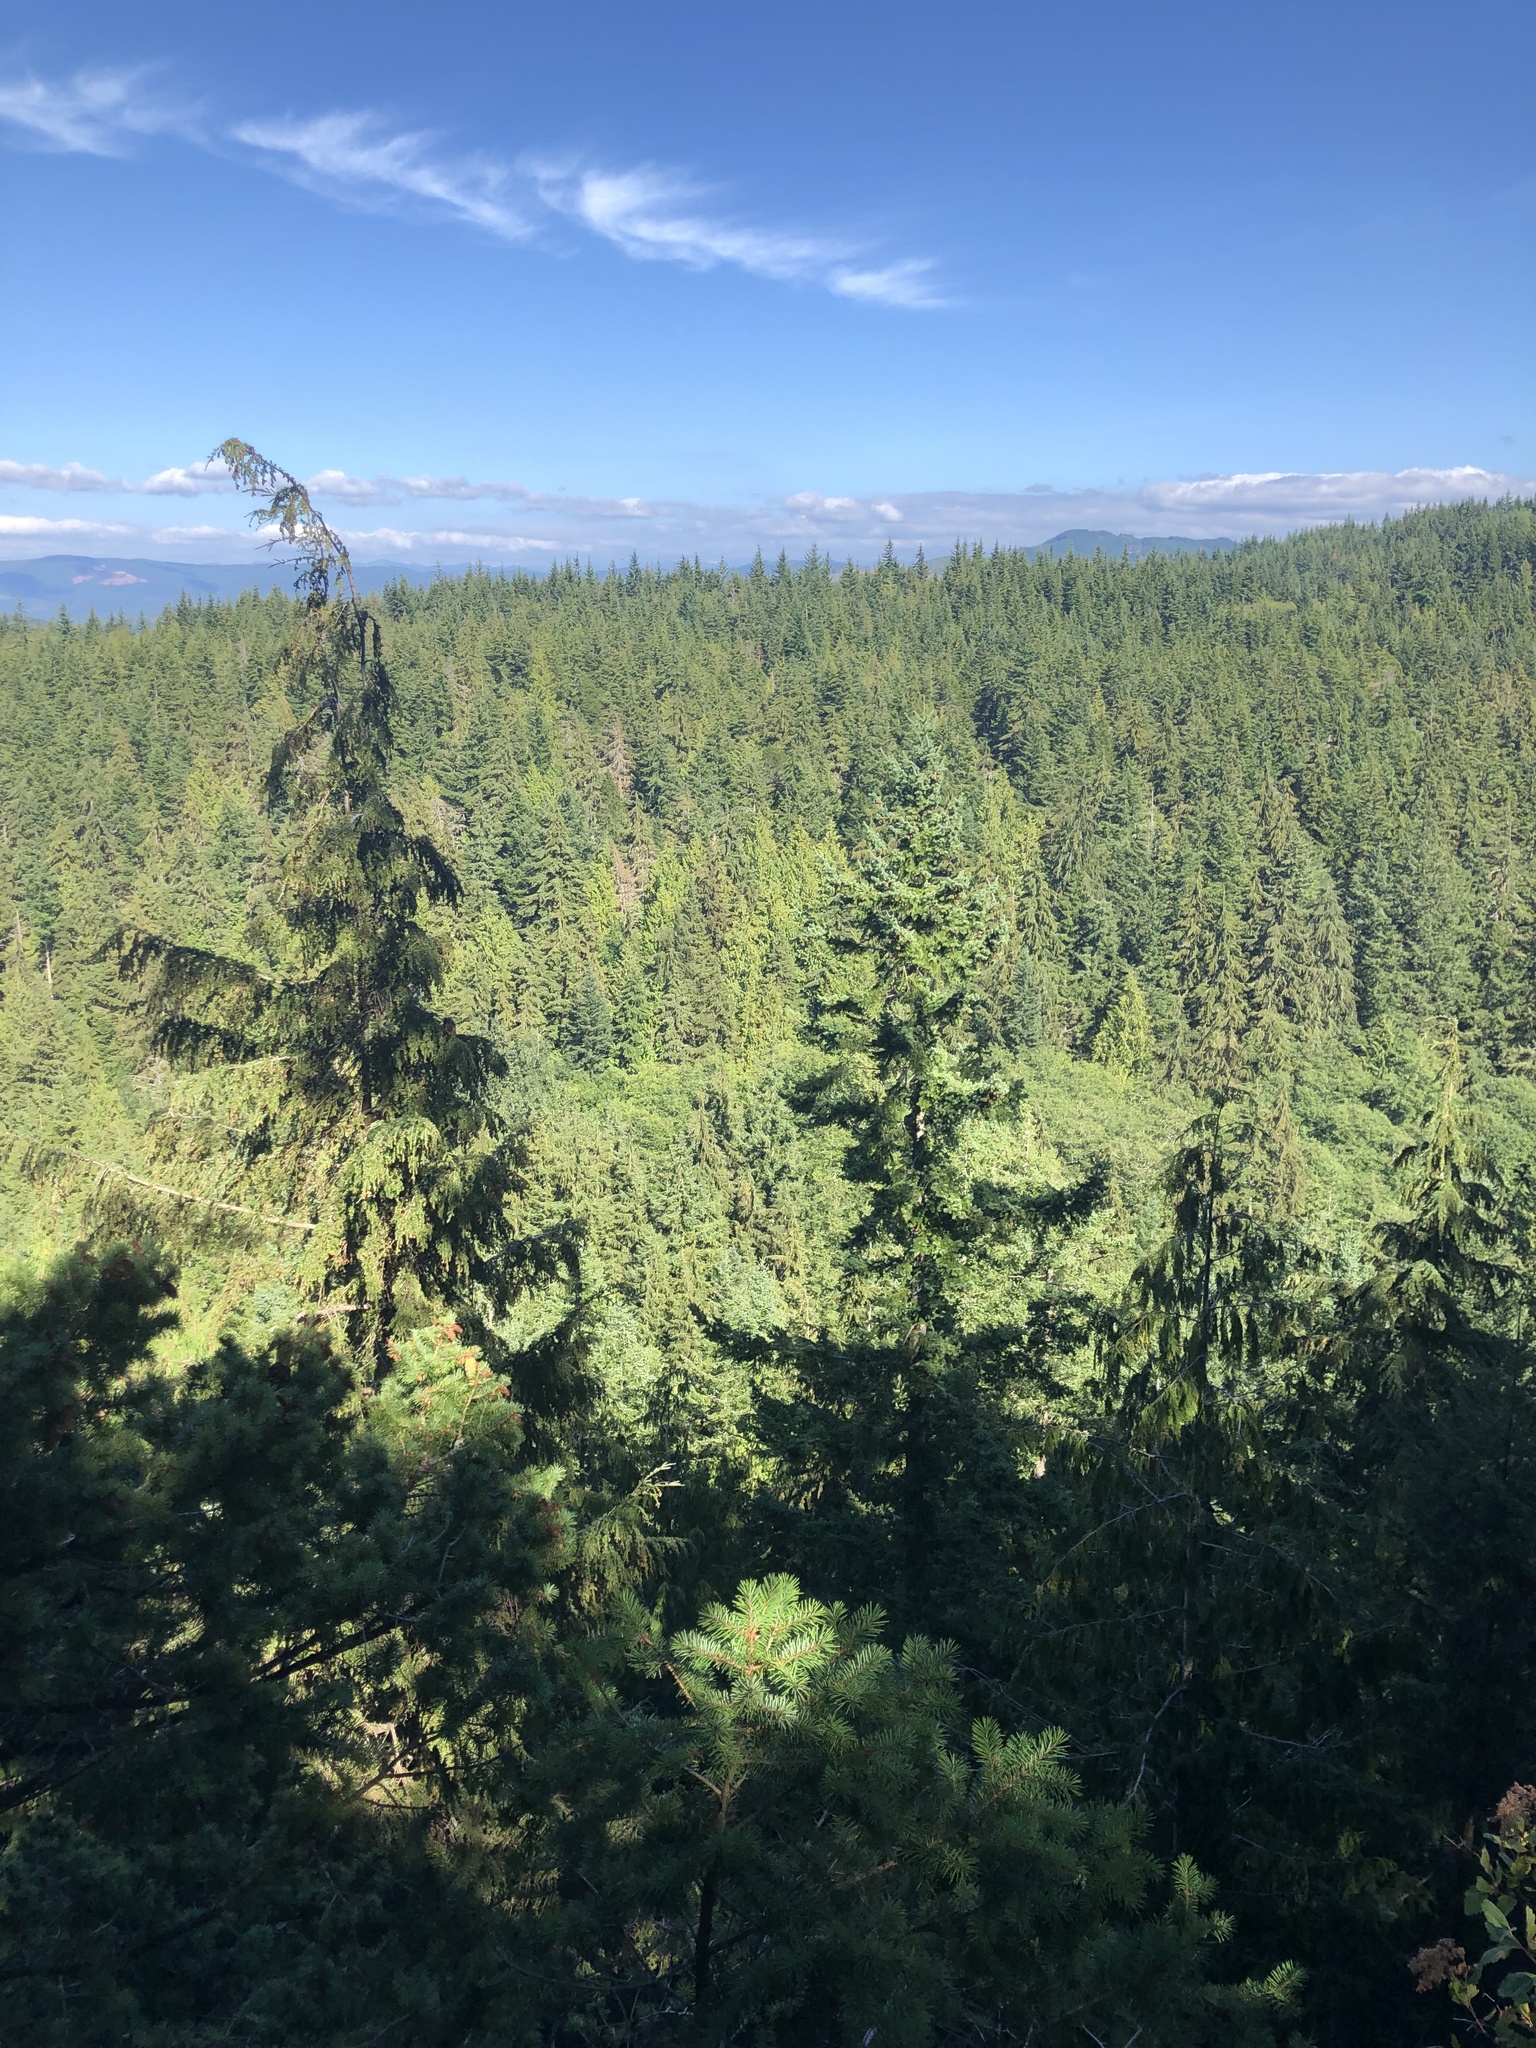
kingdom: Plantae
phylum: Tracheophyta
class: Pinopsida
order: Pinales
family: Pinaceae
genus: Tsuga
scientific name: Tsuga heterophylla
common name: Western hemlock
